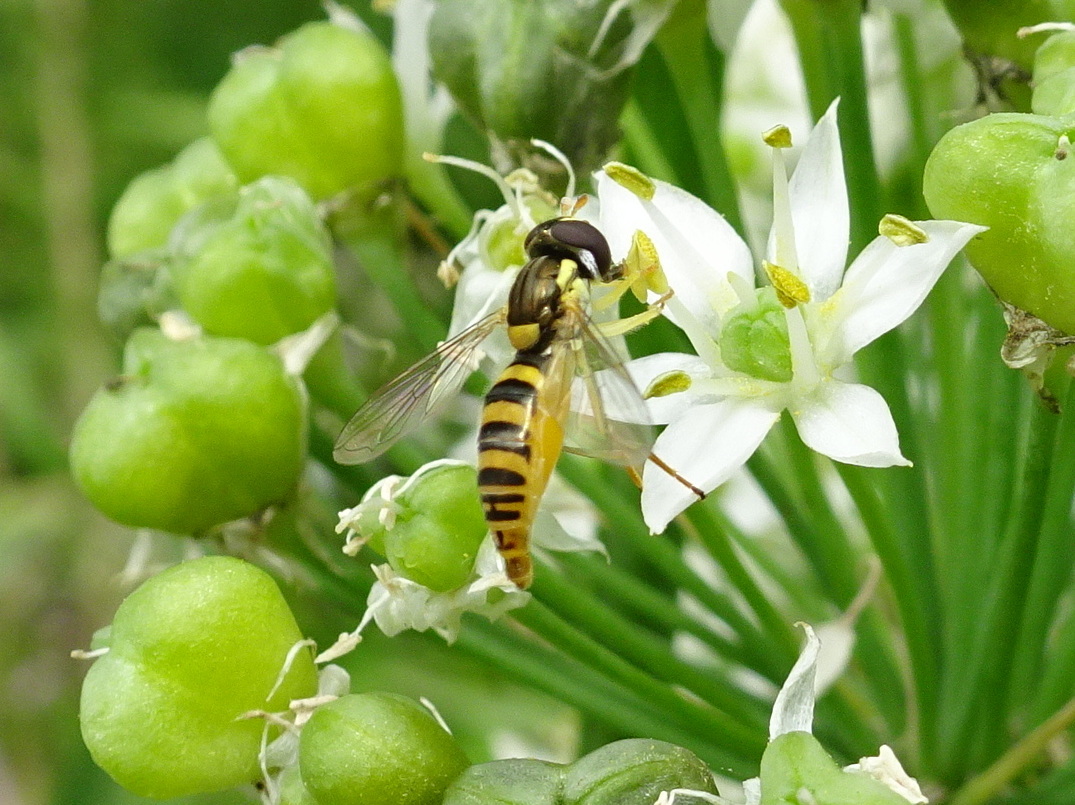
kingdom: Animalia
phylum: Arthropoda
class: Insecta
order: Diptera
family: Syrphidae
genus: Sphaerophoria
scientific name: Sphaerophoria contigua
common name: Tufted globetail
